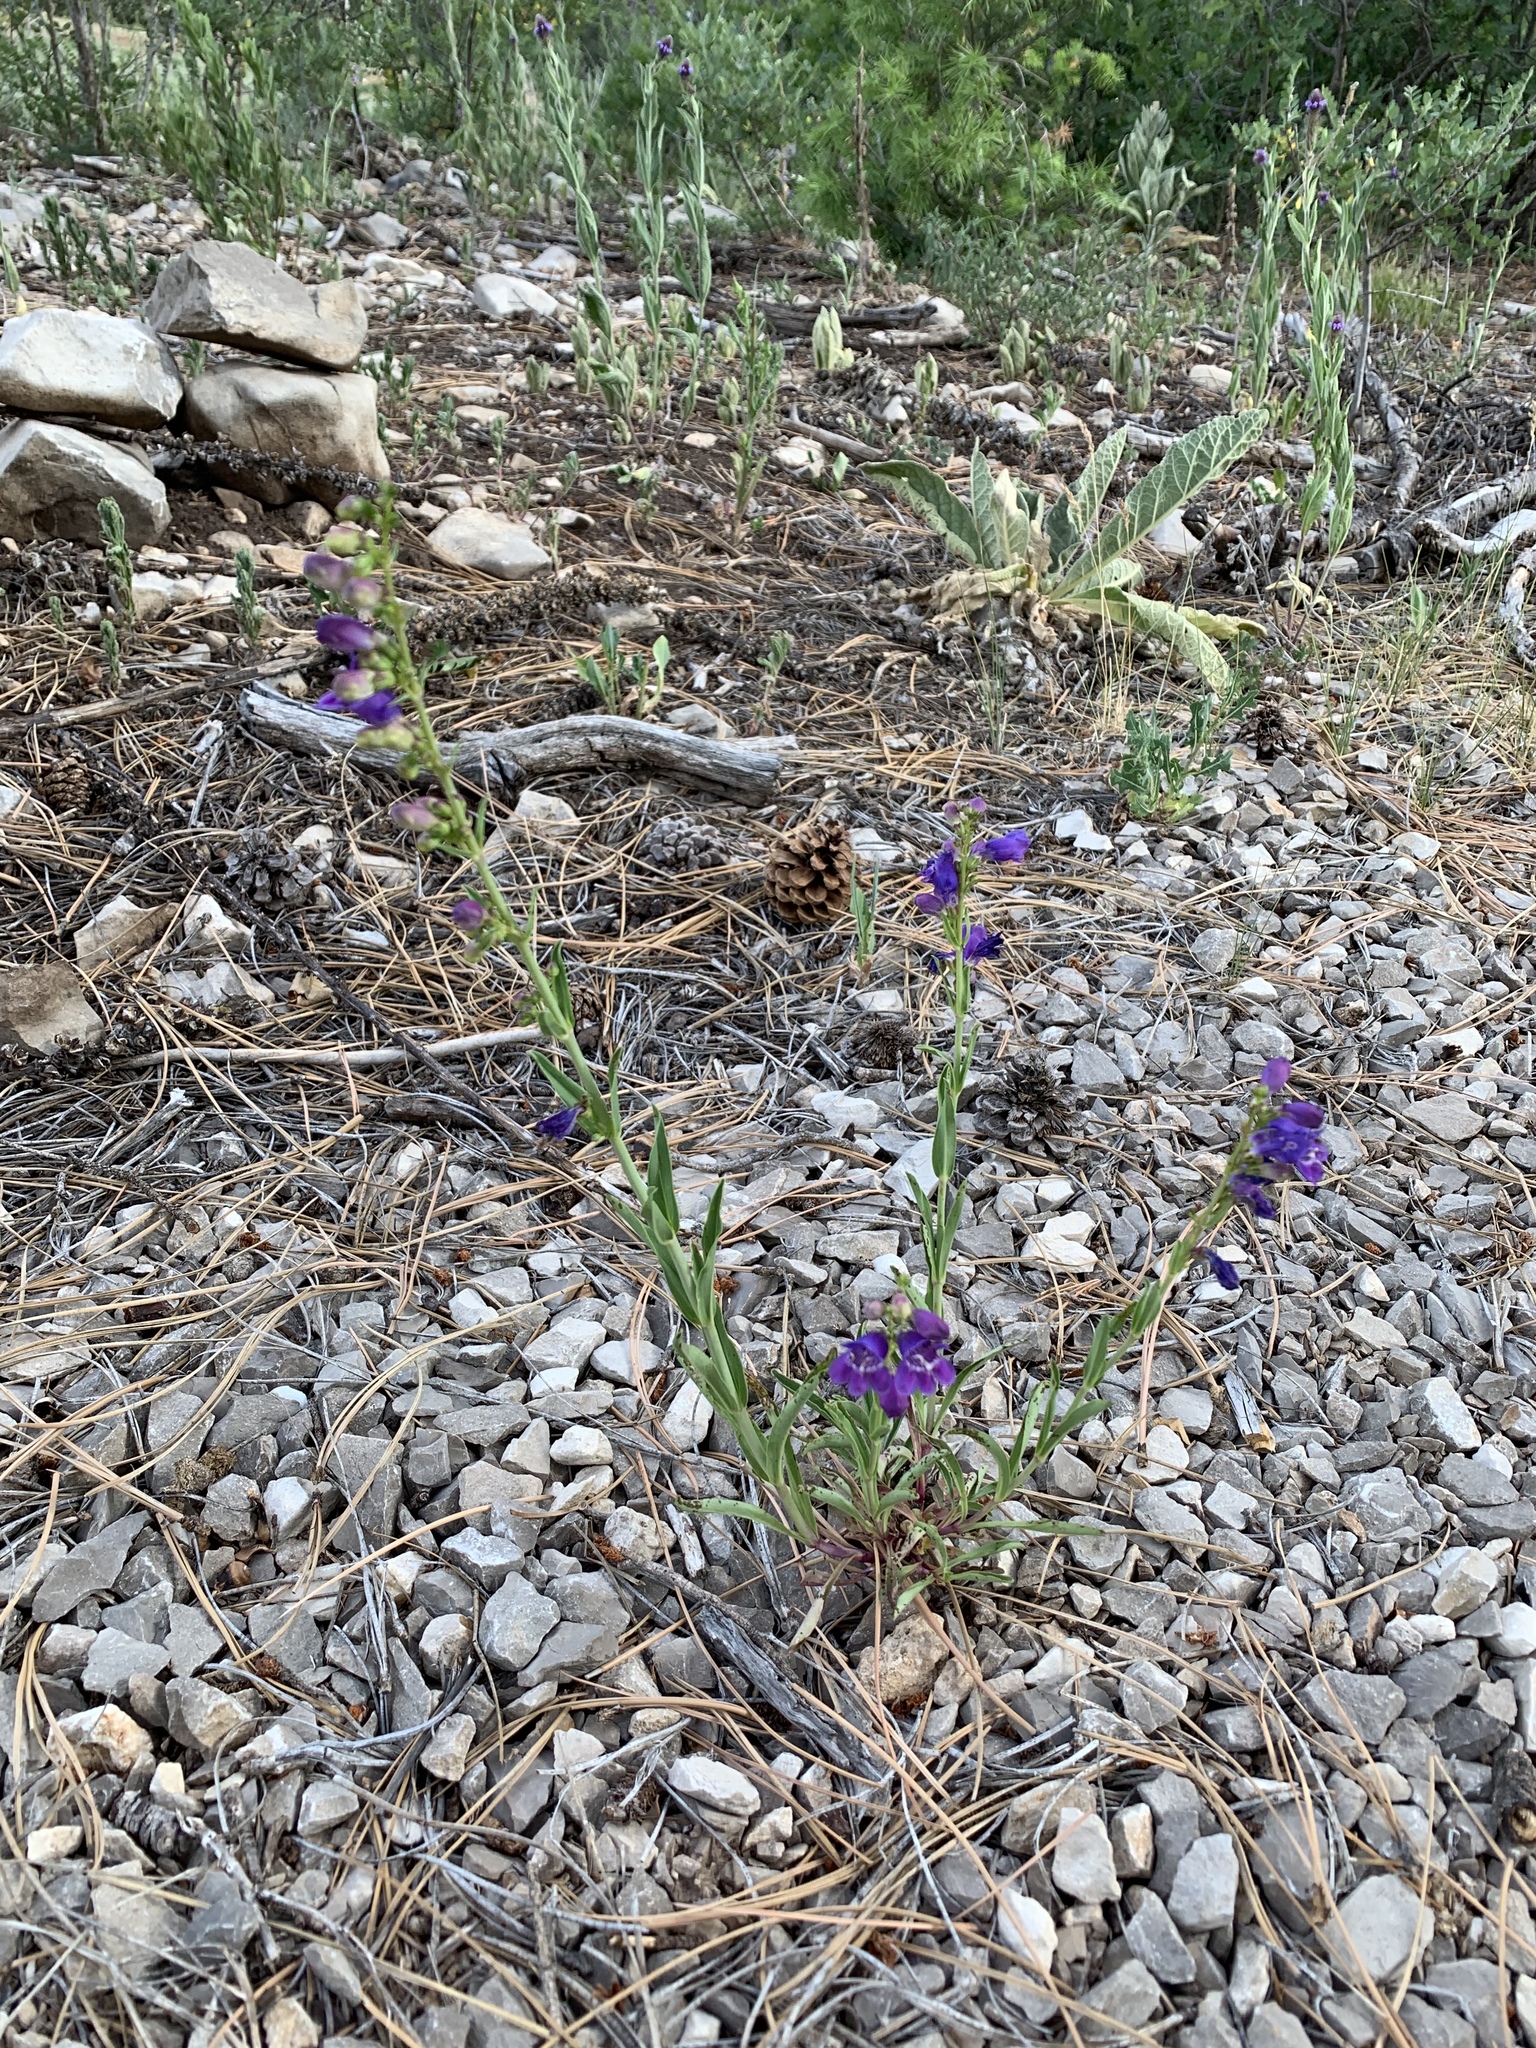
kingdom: Plantae
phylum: Tracheophyta
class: Magnoliopsida
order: Lamiales
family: Plantaginaceae
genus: Penstemon
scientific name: Penstemon neomexicanus
